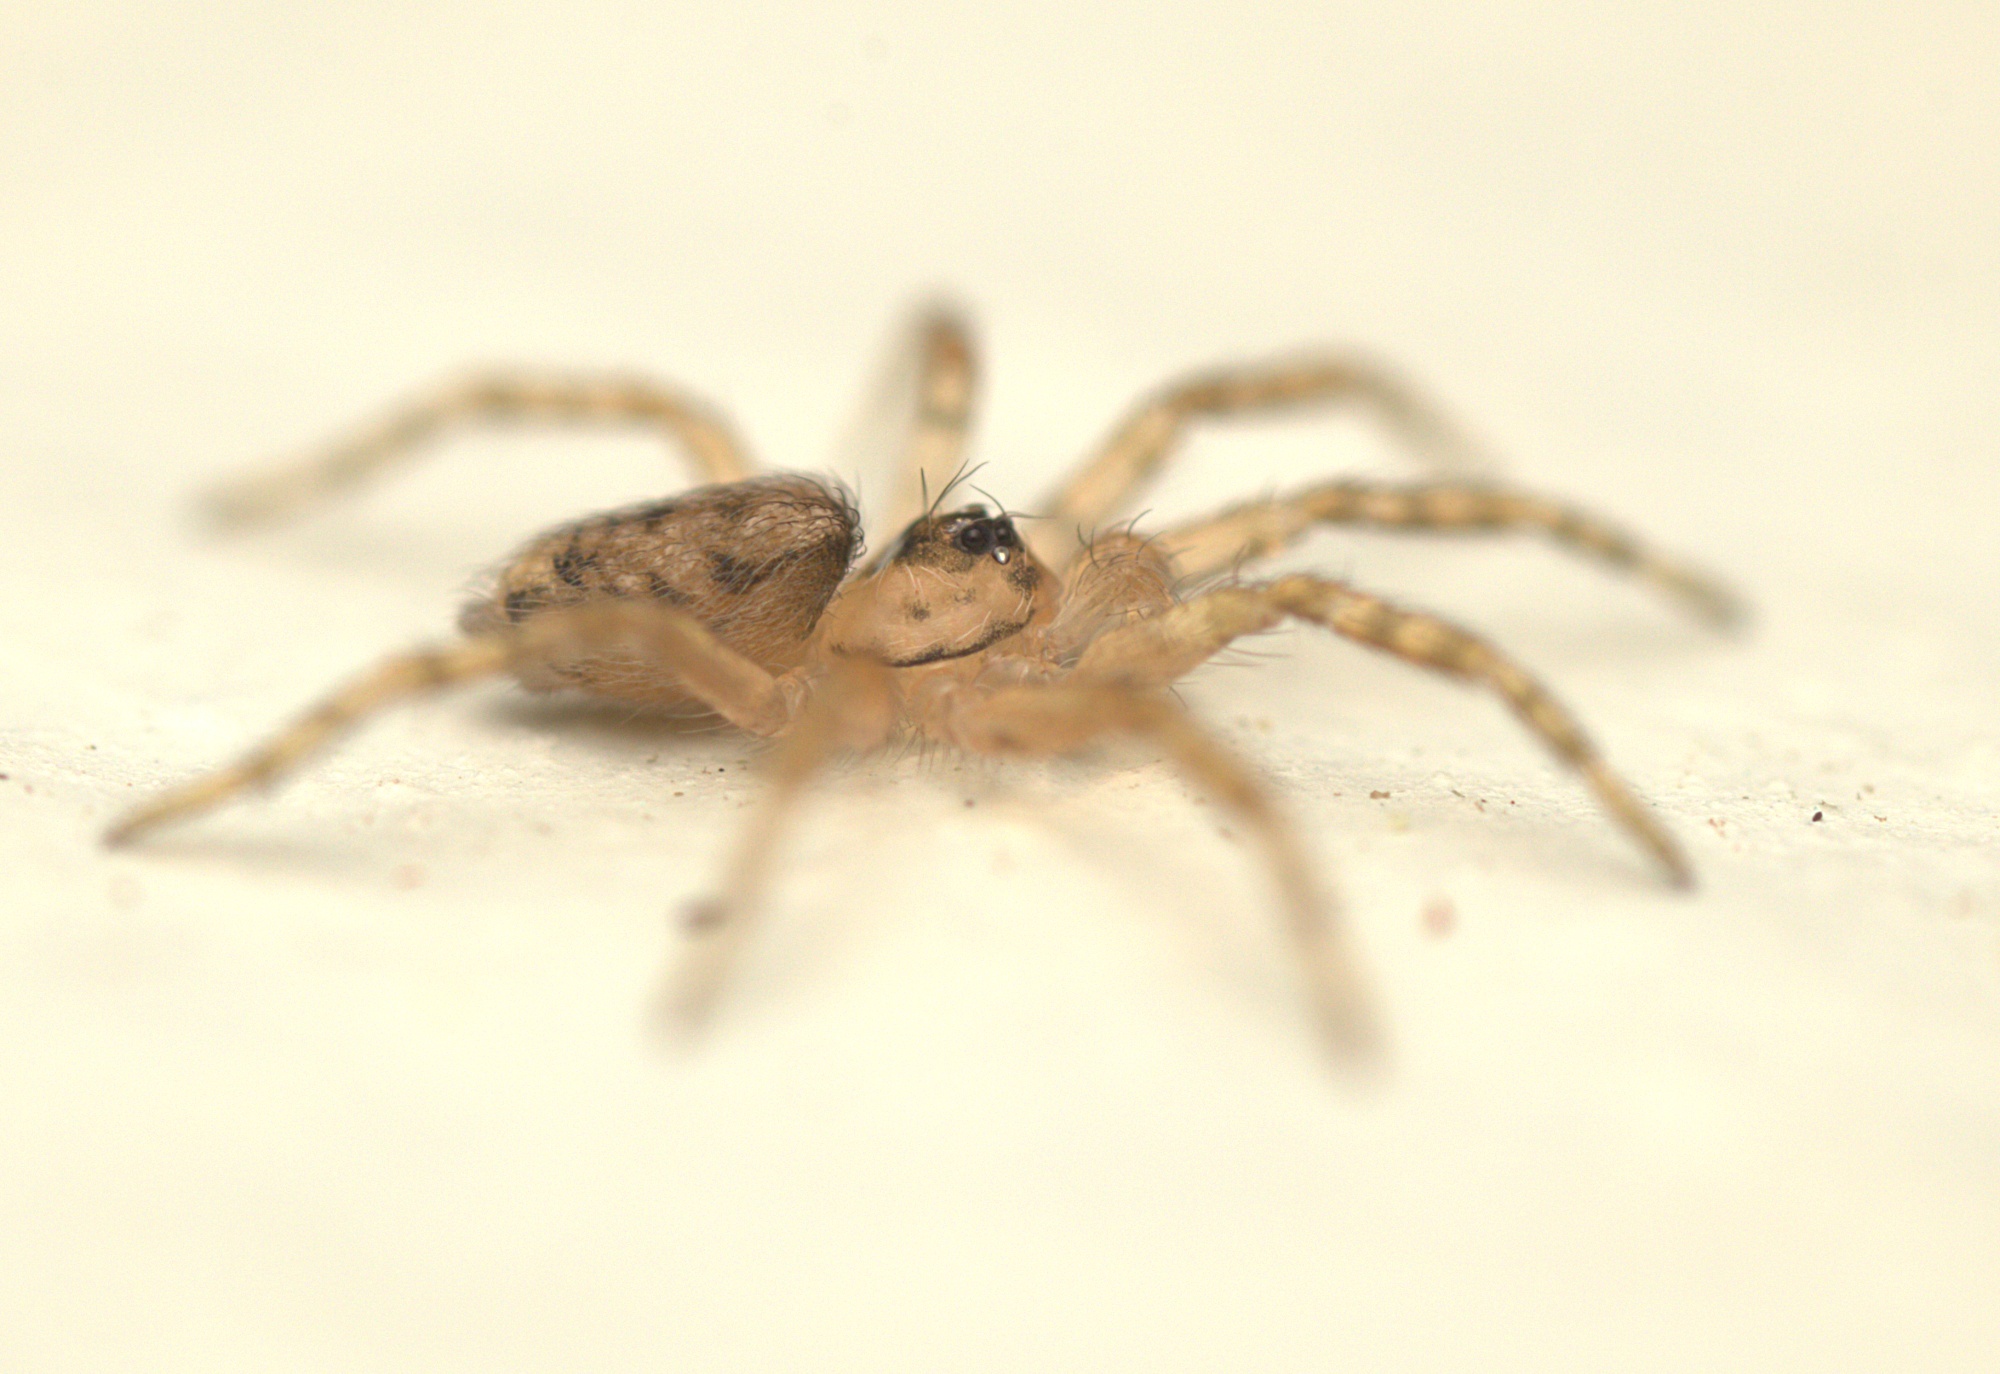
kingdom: Animalia
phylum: Arthropoda
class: Arachnida
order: Araneae
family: Oecobiidae
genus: Oecobius
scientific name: Oecobius navus
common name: Flatmesh weaver
